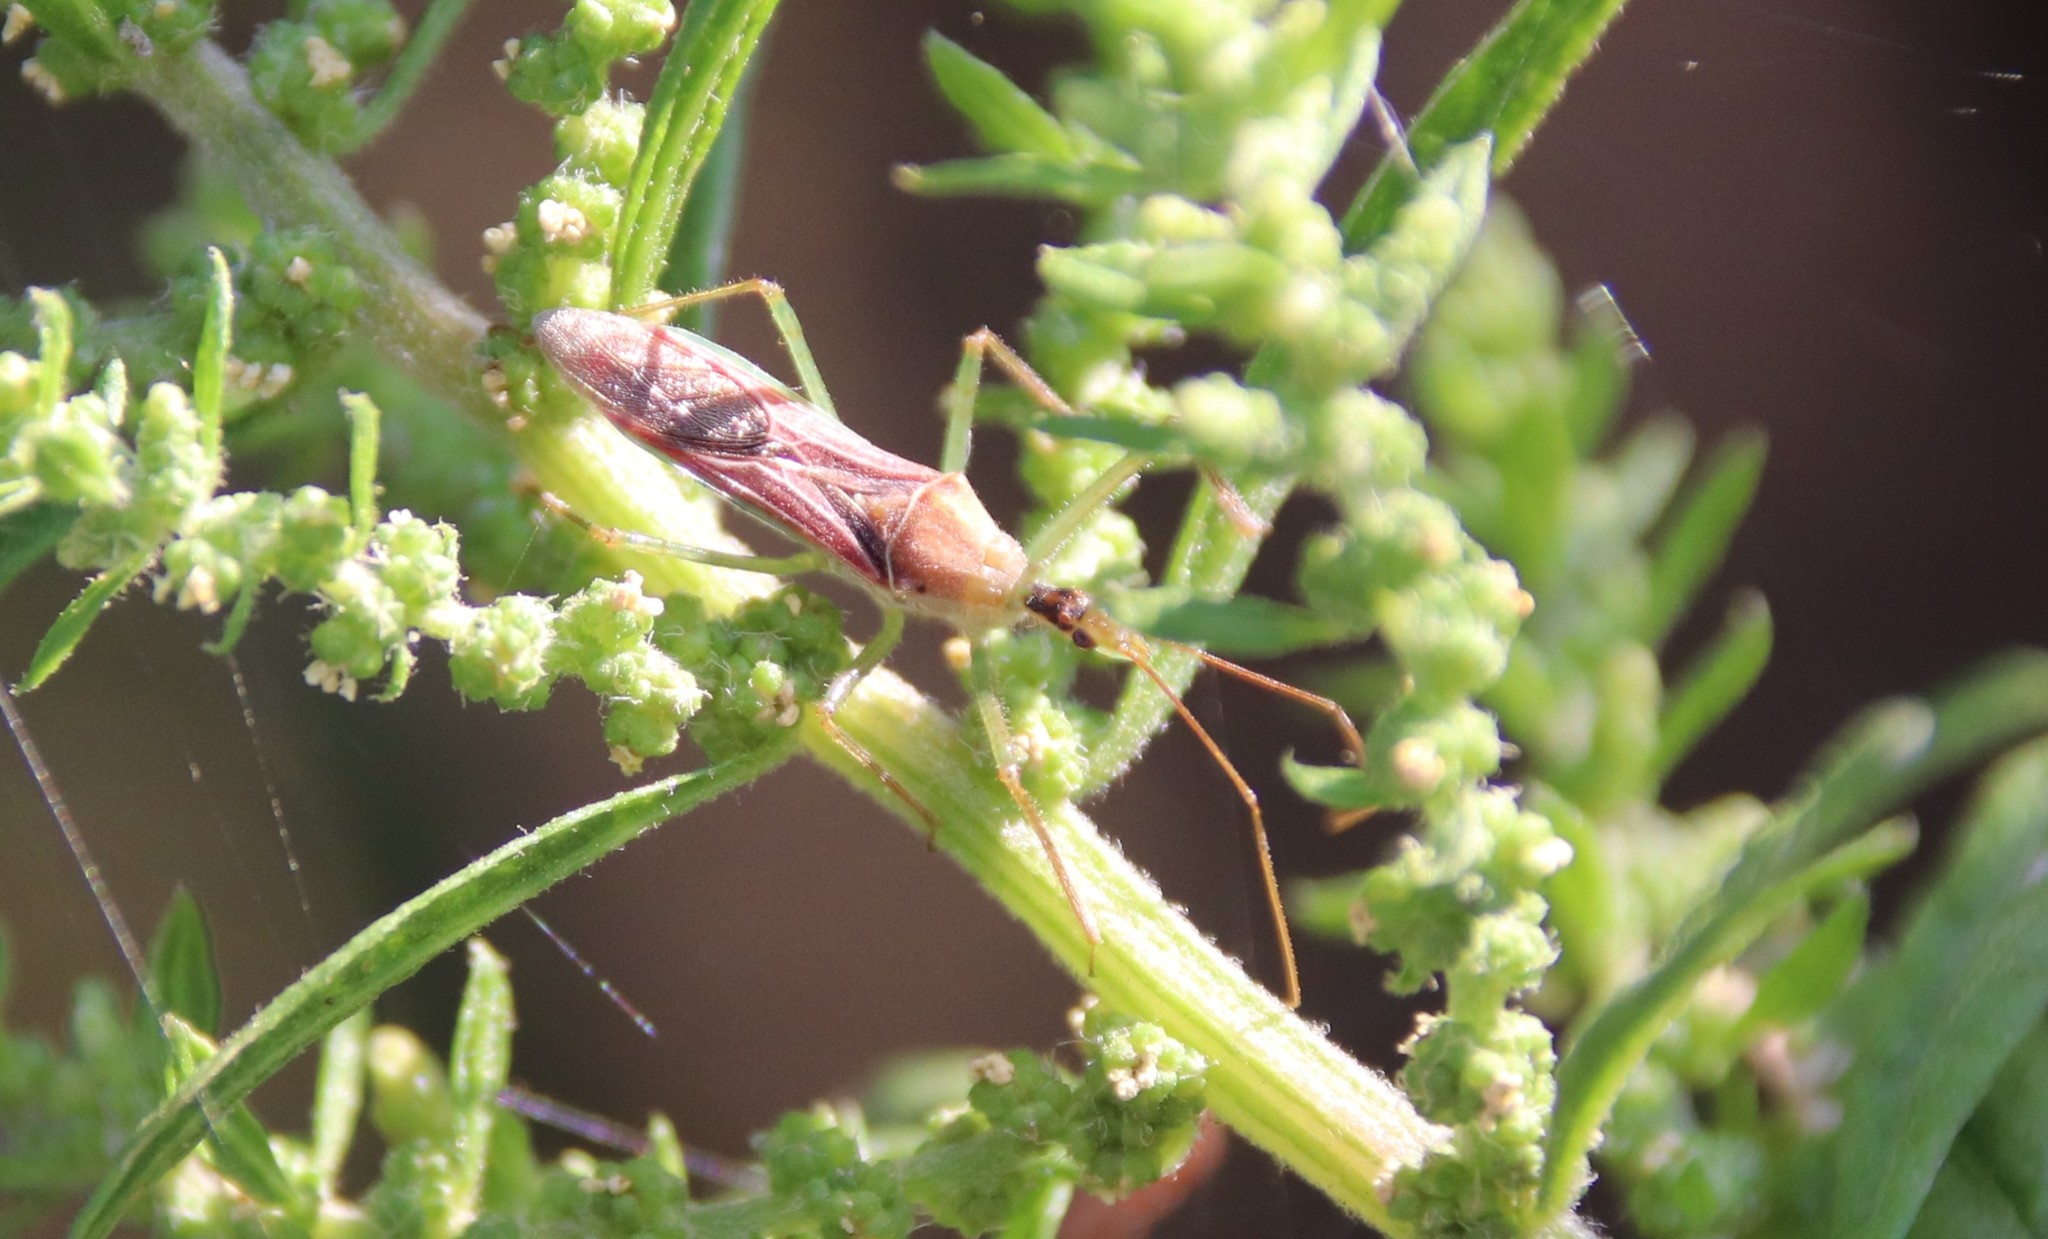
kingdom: Animalia
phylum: Arthropoda
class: Insecta
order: Hemiptera
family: Reduviidae
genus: Zelus
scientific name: Zelus renardii
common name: Assassin bug
